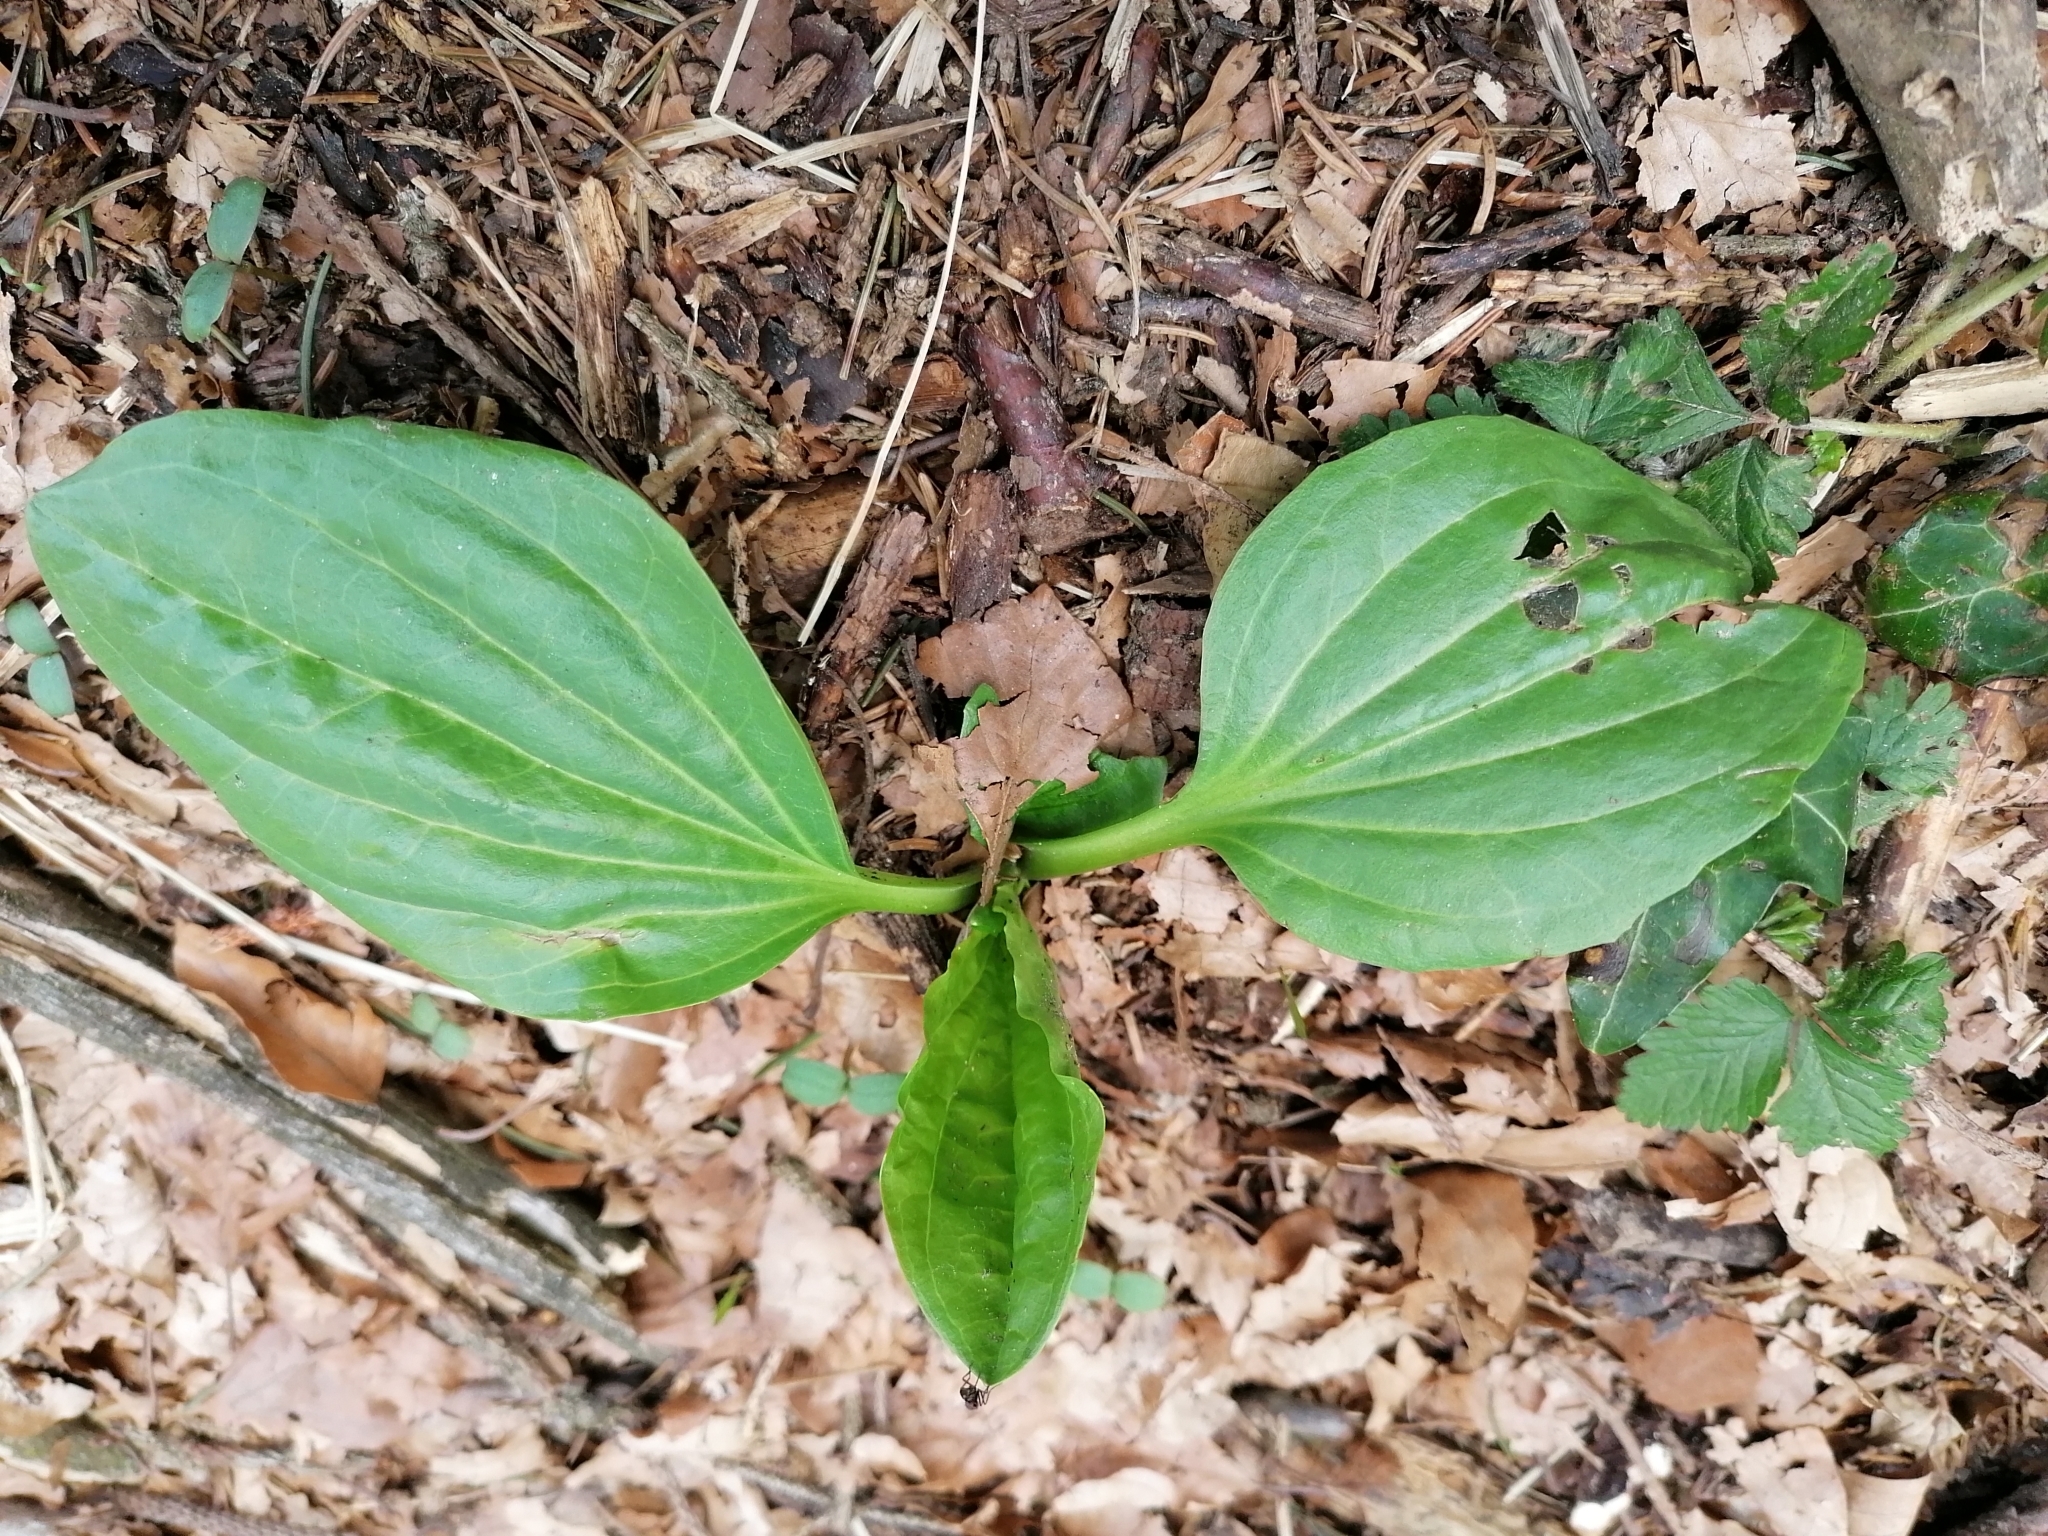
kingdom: Plantae
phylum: Tracheophyta
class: Magnoliopsida
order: Lamiales
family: Plantaginaceae
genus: Plantago
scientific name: Plantago major
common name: Common plantain
